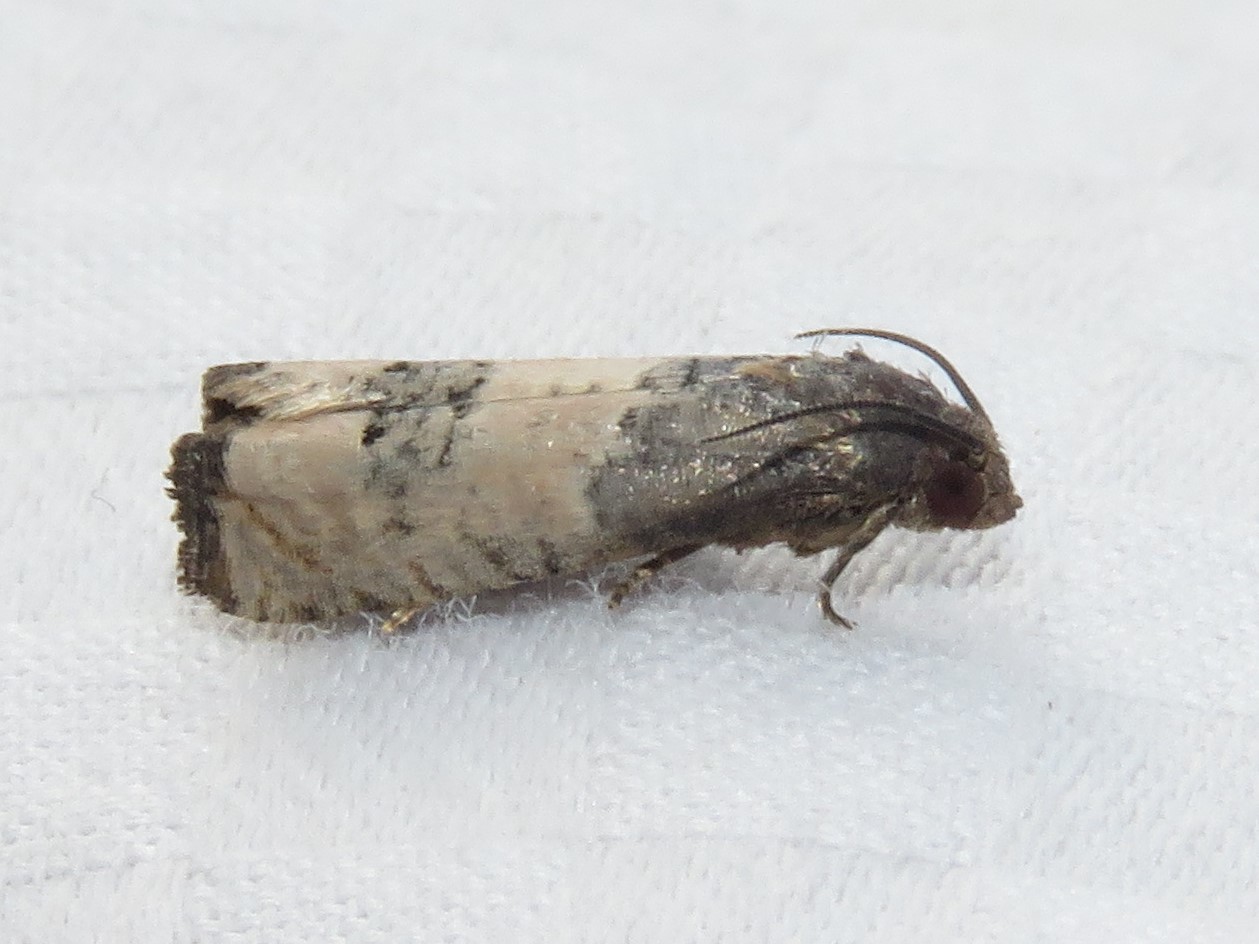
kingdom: Animalia
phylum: Arthropoda
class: Insecta
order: Lepidoptera
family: Tortricidae
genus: Epiblema
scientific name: Epiblema desertana
